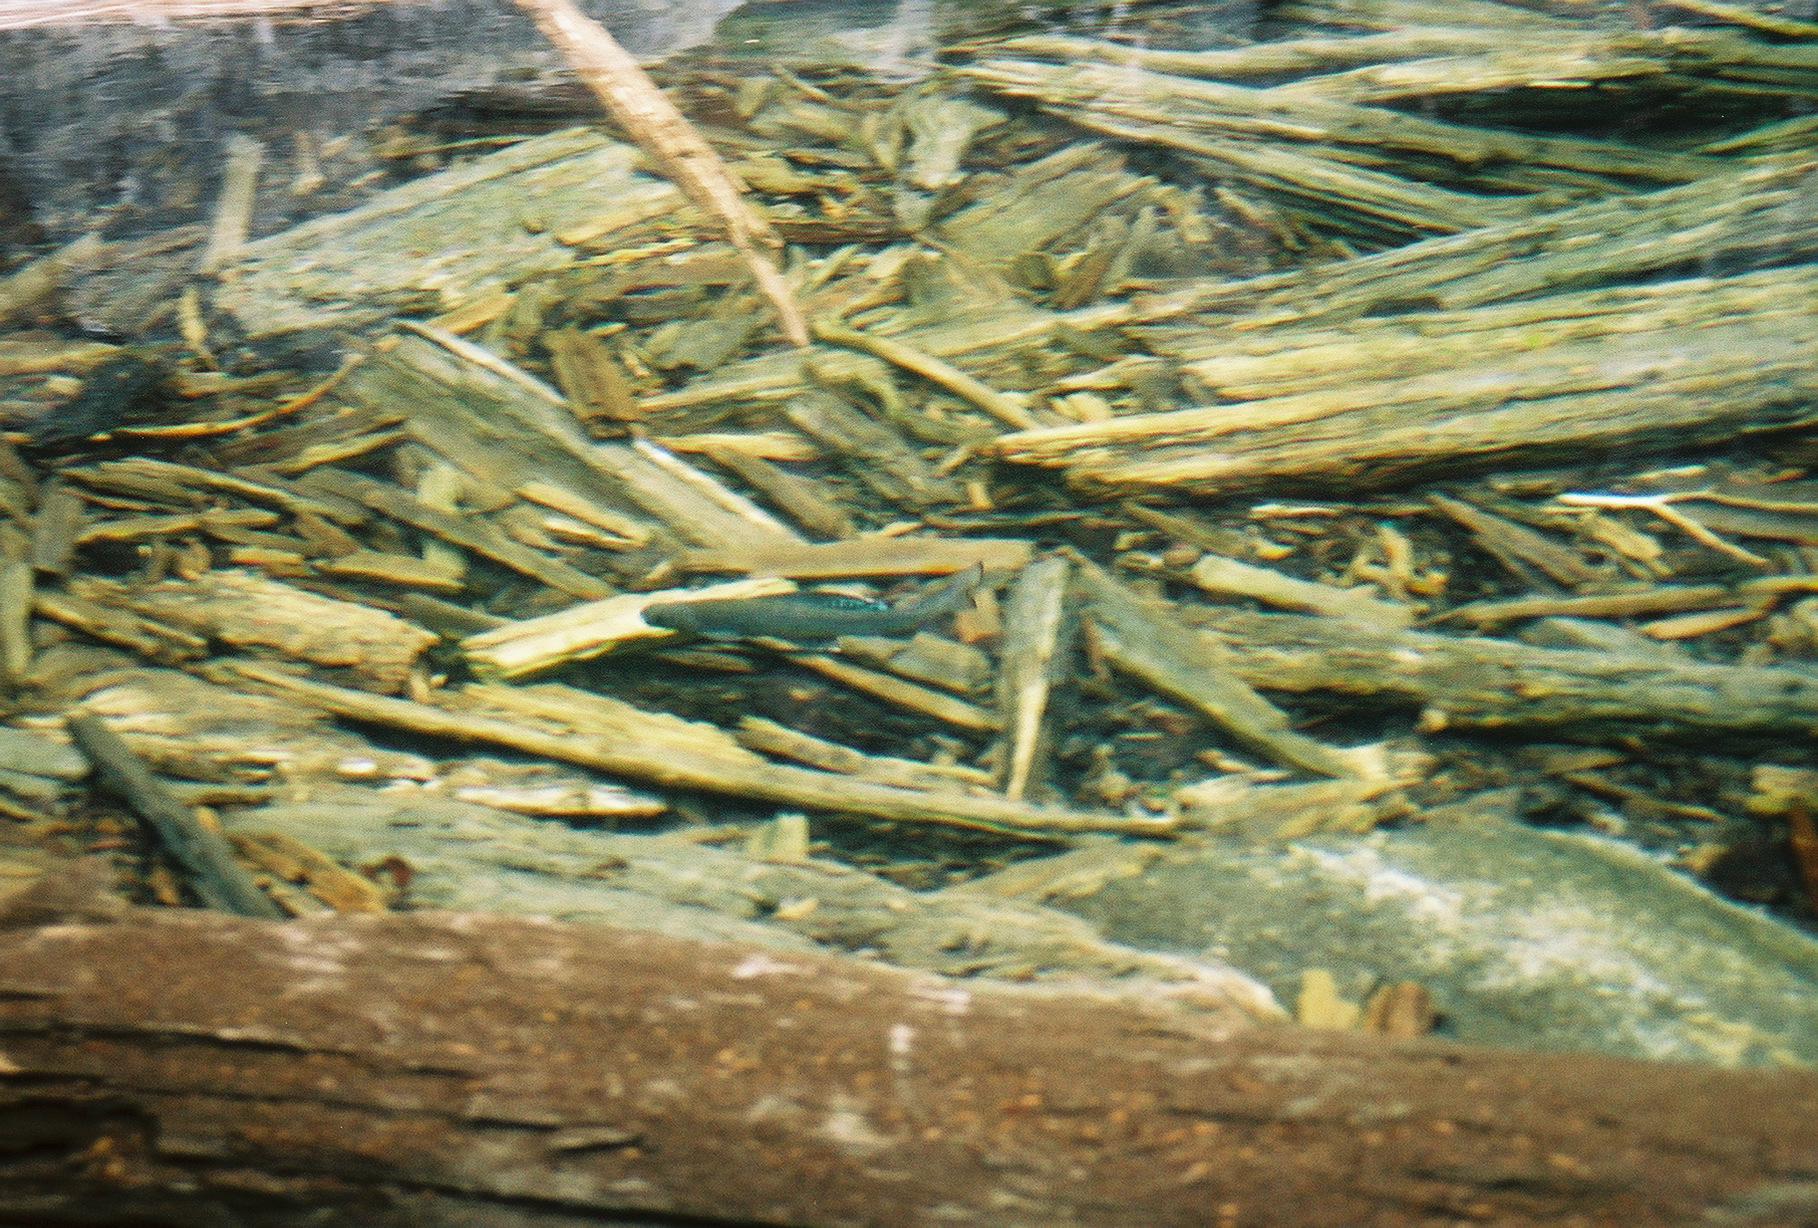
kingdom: Animalia
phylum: Chordata
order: Salmoniformes
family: Salmonidae
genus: Thymallus
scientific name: Thymallus arcticus
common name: Arctic grayling
